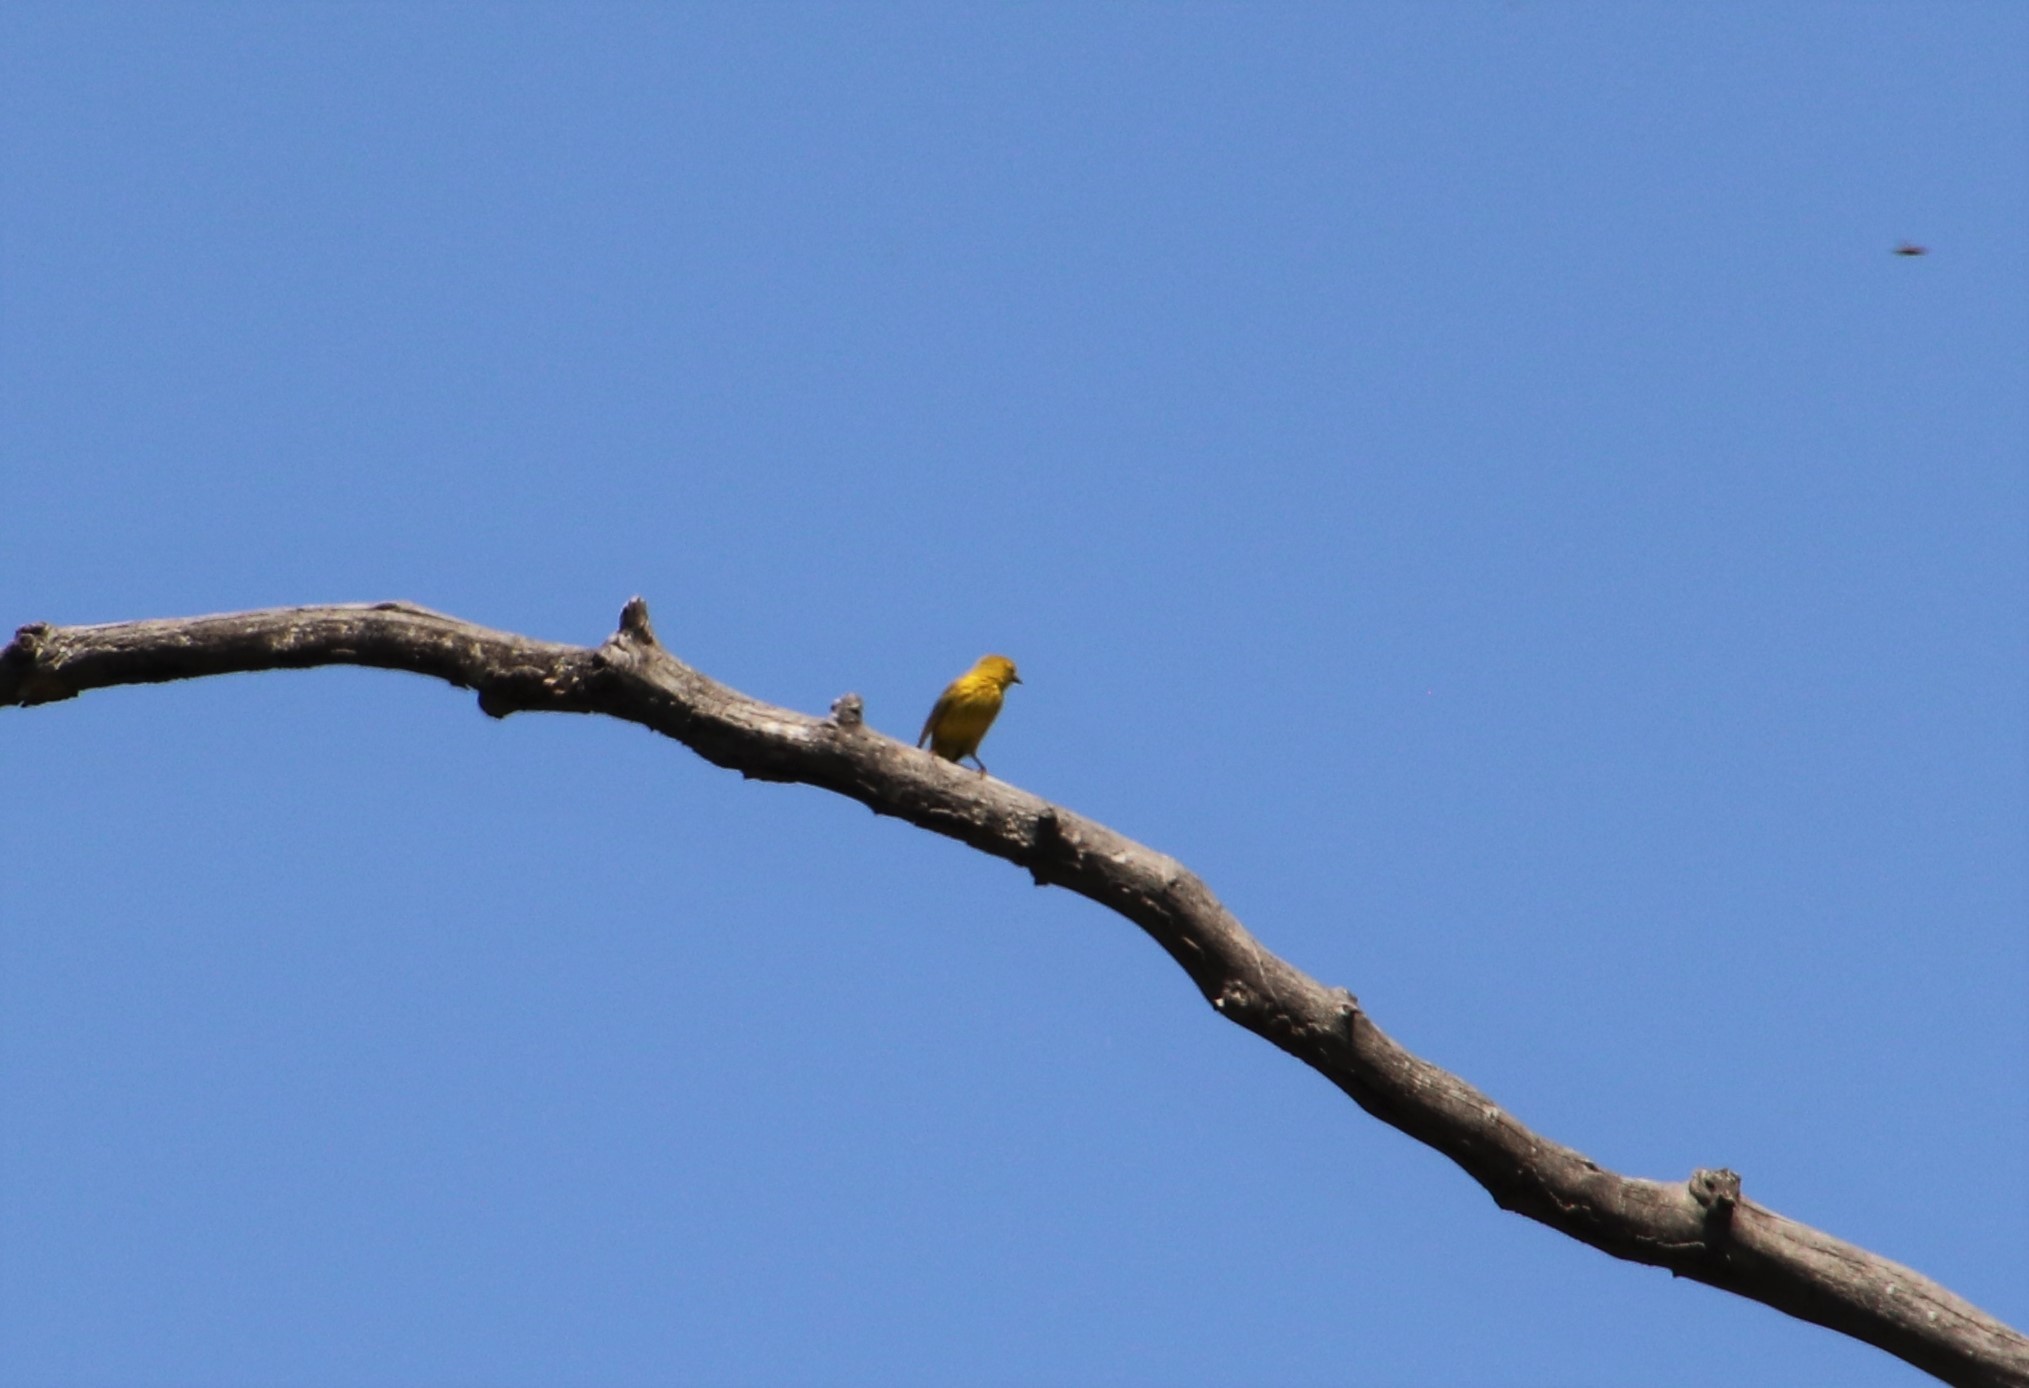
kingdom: Animalia
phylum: Chordata
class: Aves
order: Passeriformes
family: Parulidae
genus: Setophaga
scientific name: Setophaga petechia
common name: Yellow warbler
